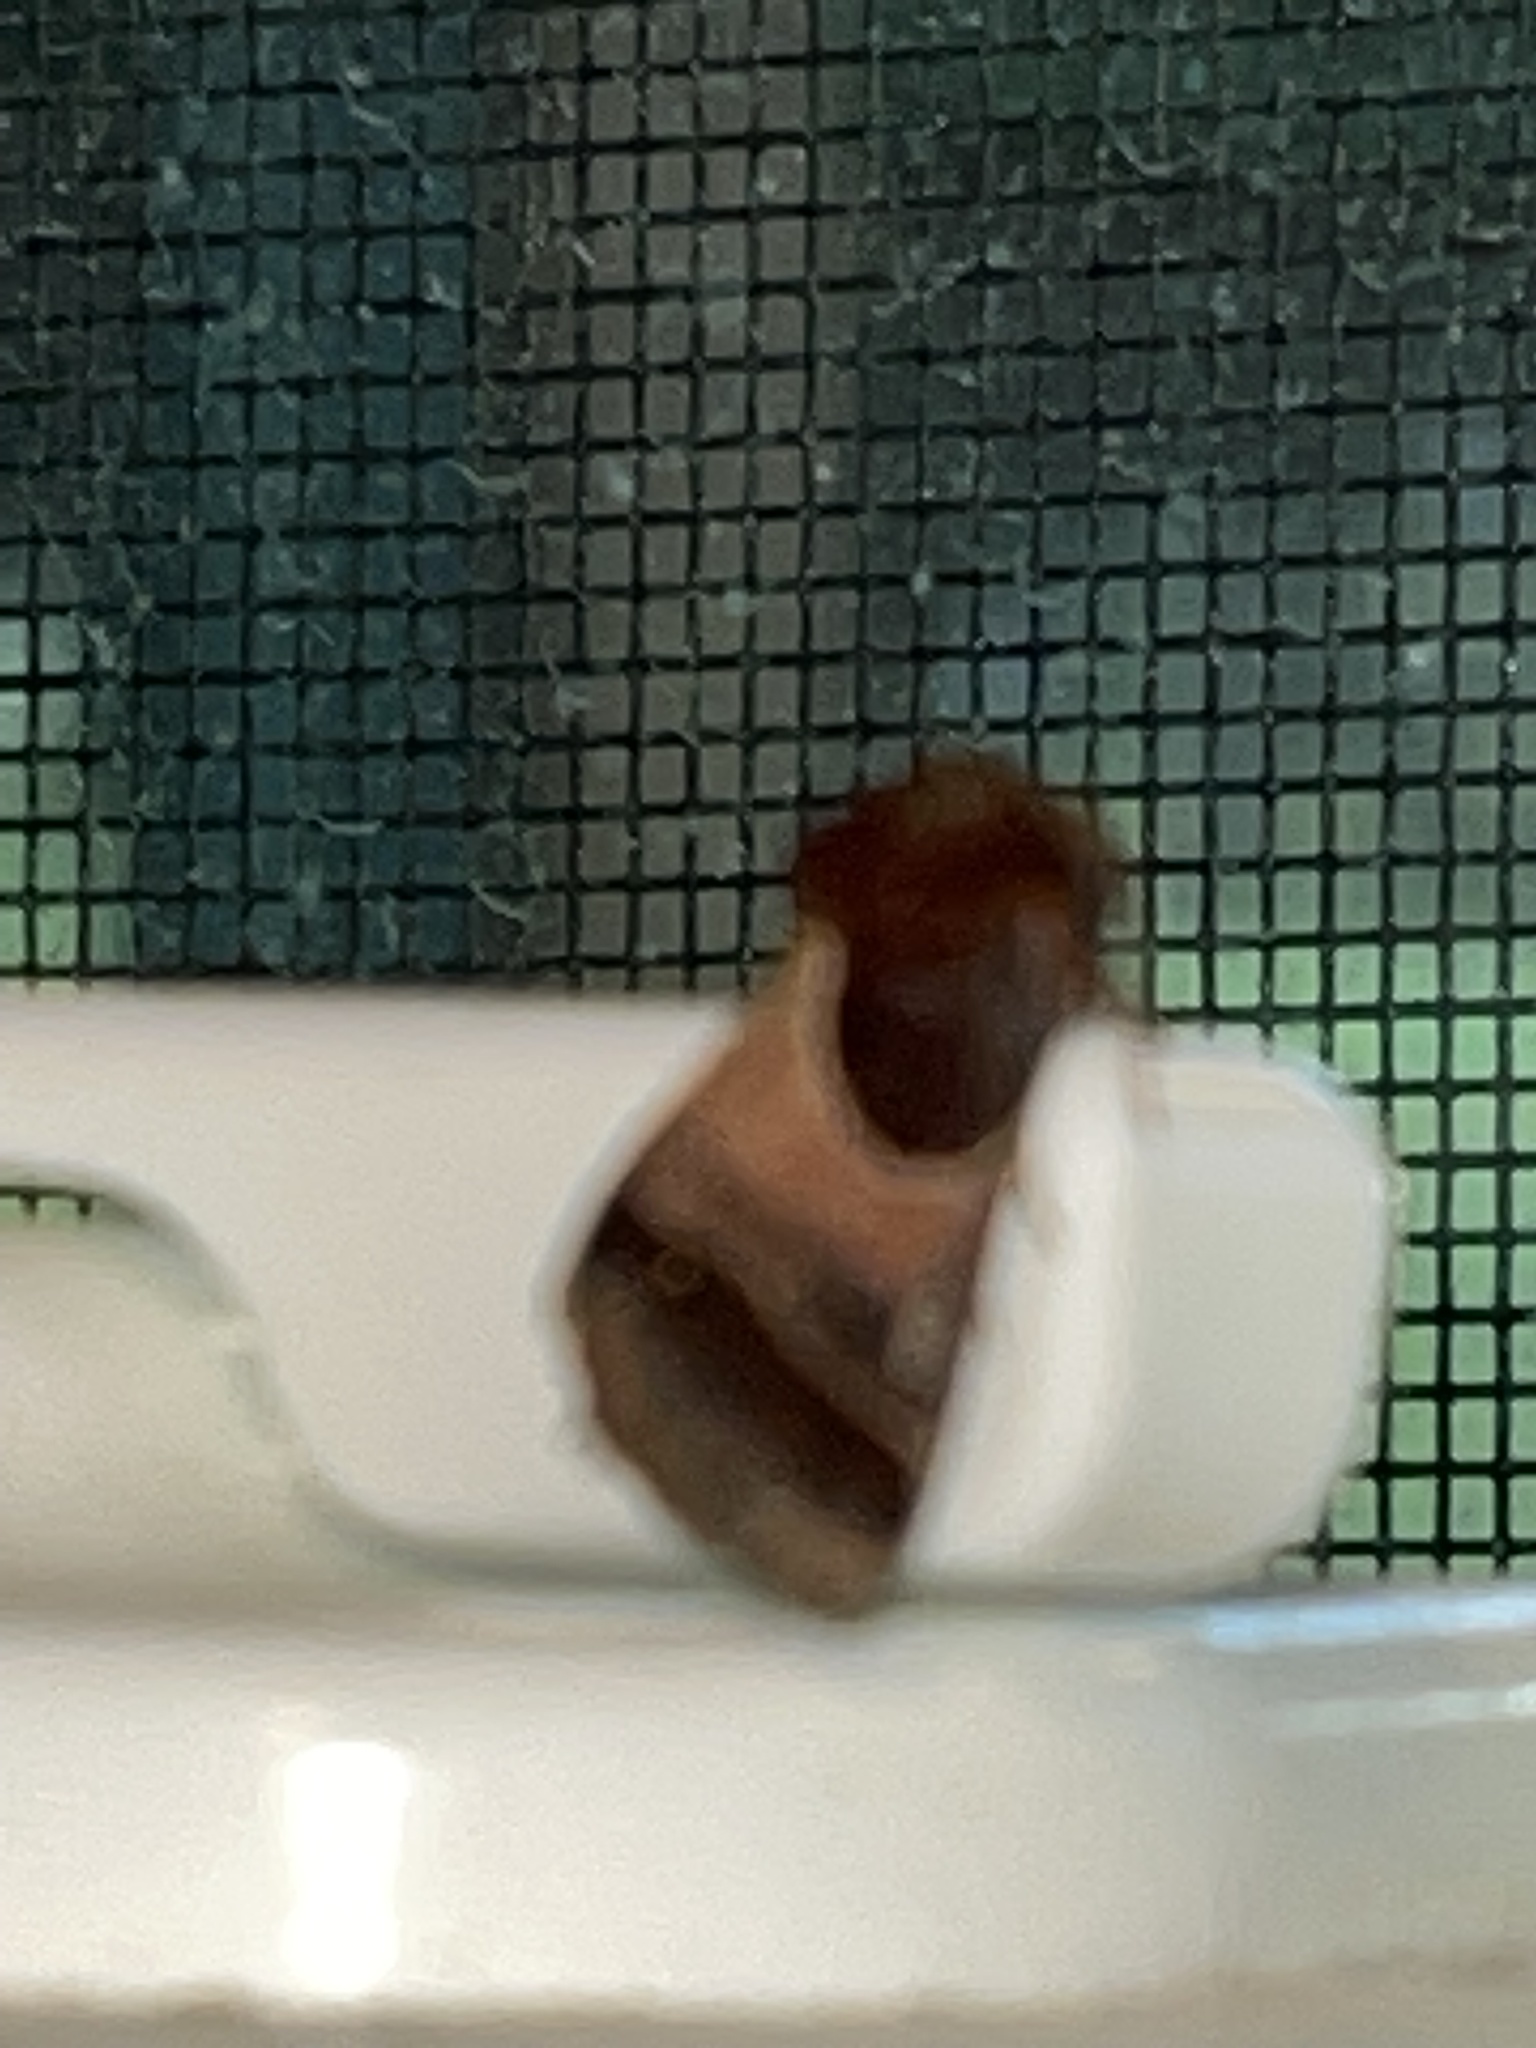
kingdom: Animalia
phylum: Arthropoda
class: Insecta
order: Lepidoptera
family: Noctuidae
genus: Schinia
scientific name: Schinia arcigera
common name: Arcigera flower moth
